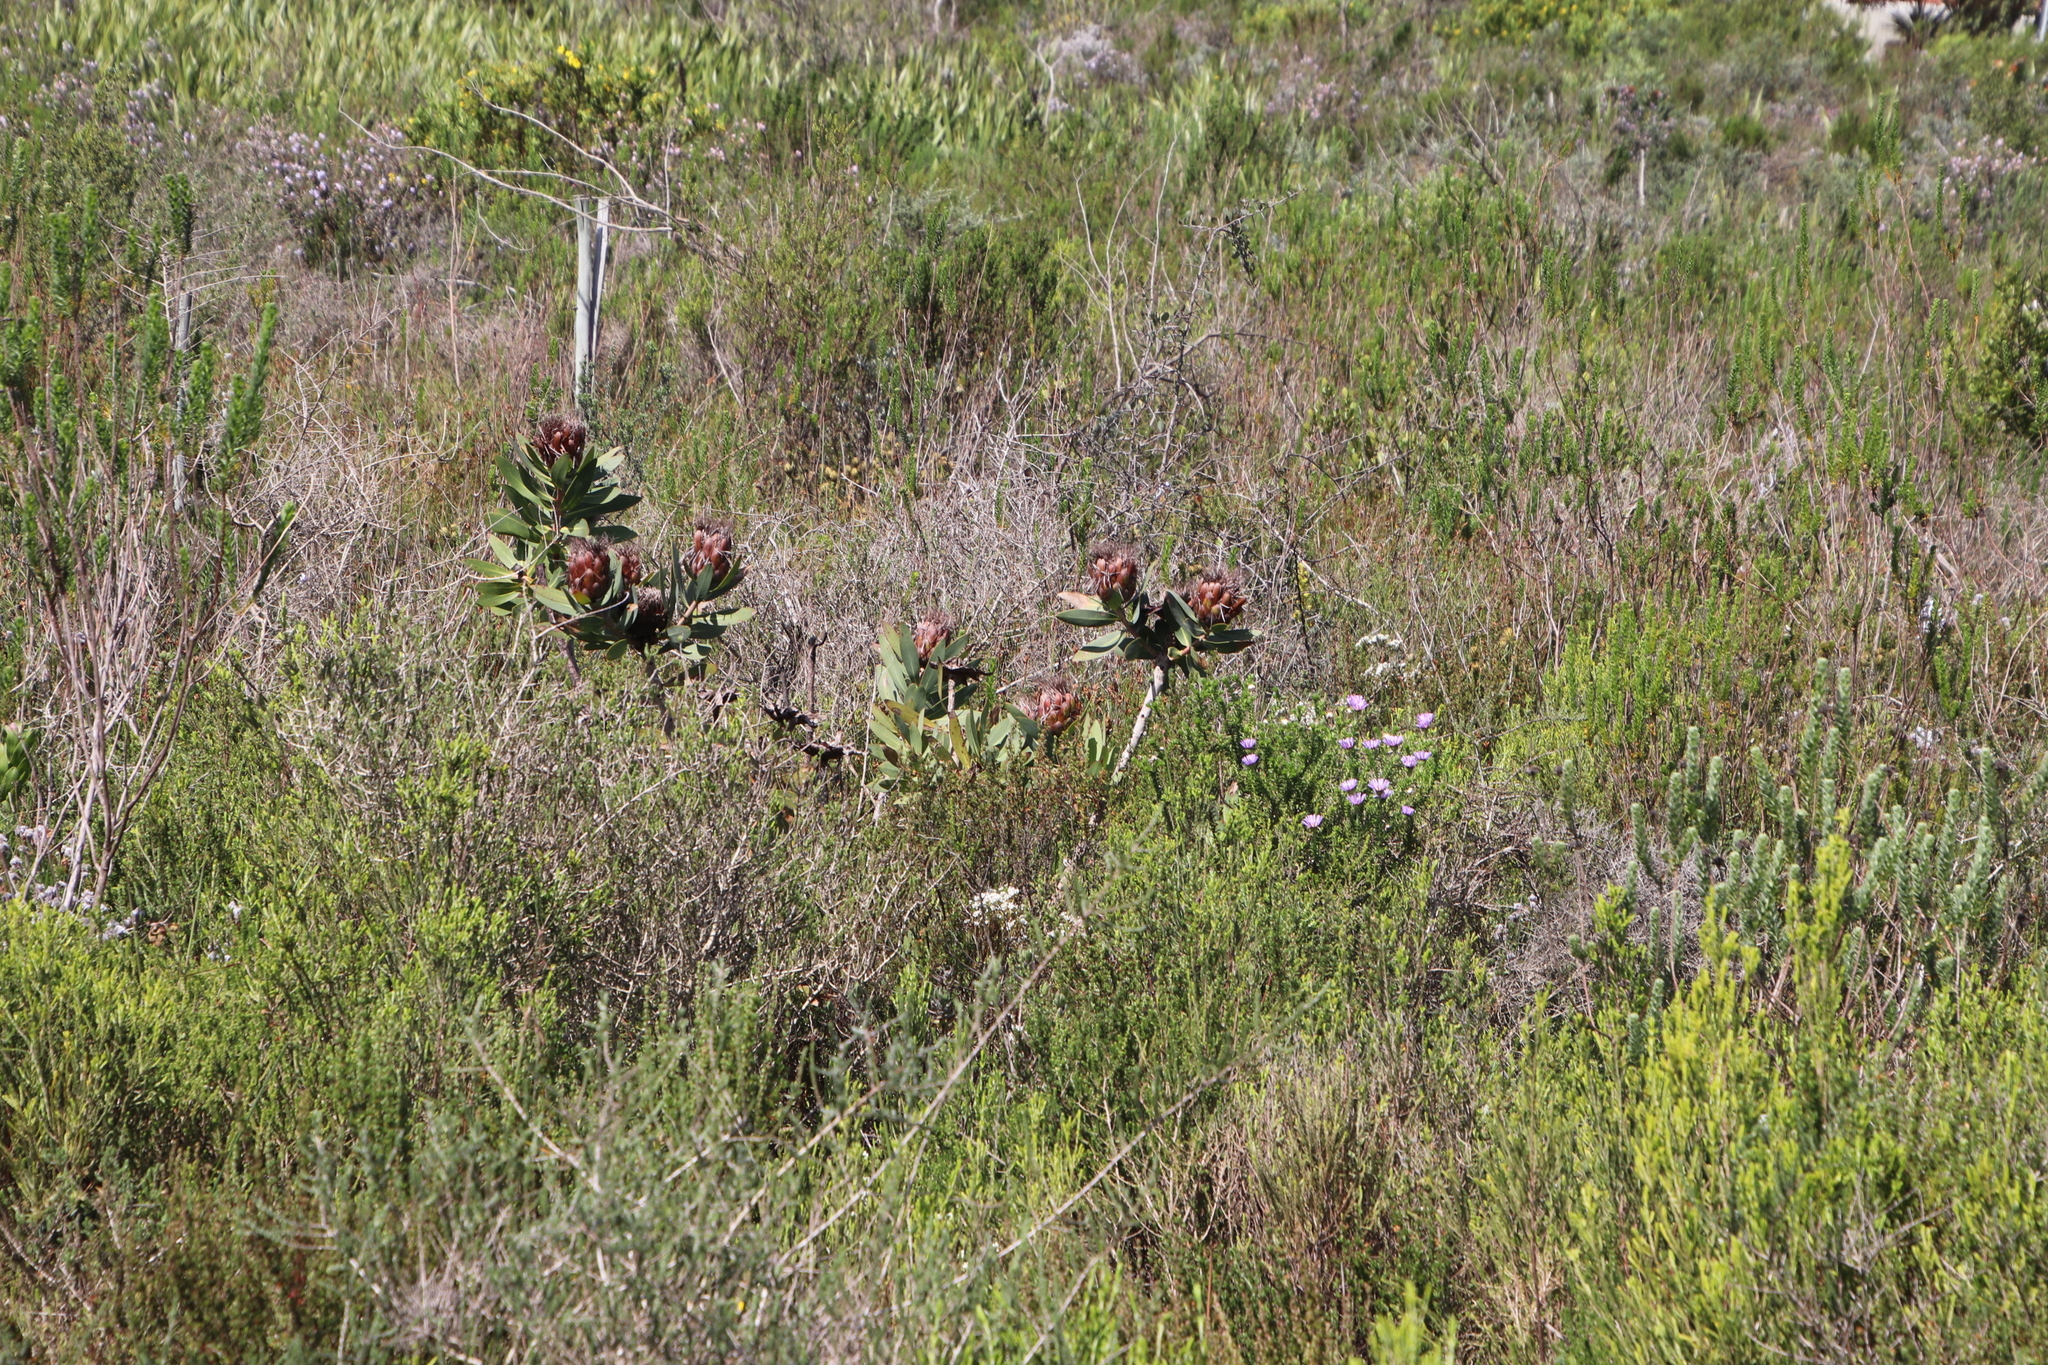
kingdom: Plantae
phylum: Tracheophyta
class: Magnoliopsida
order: Proteales
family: Proteaceae
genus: Protea
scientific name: Protea nitida
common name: Tree protea
